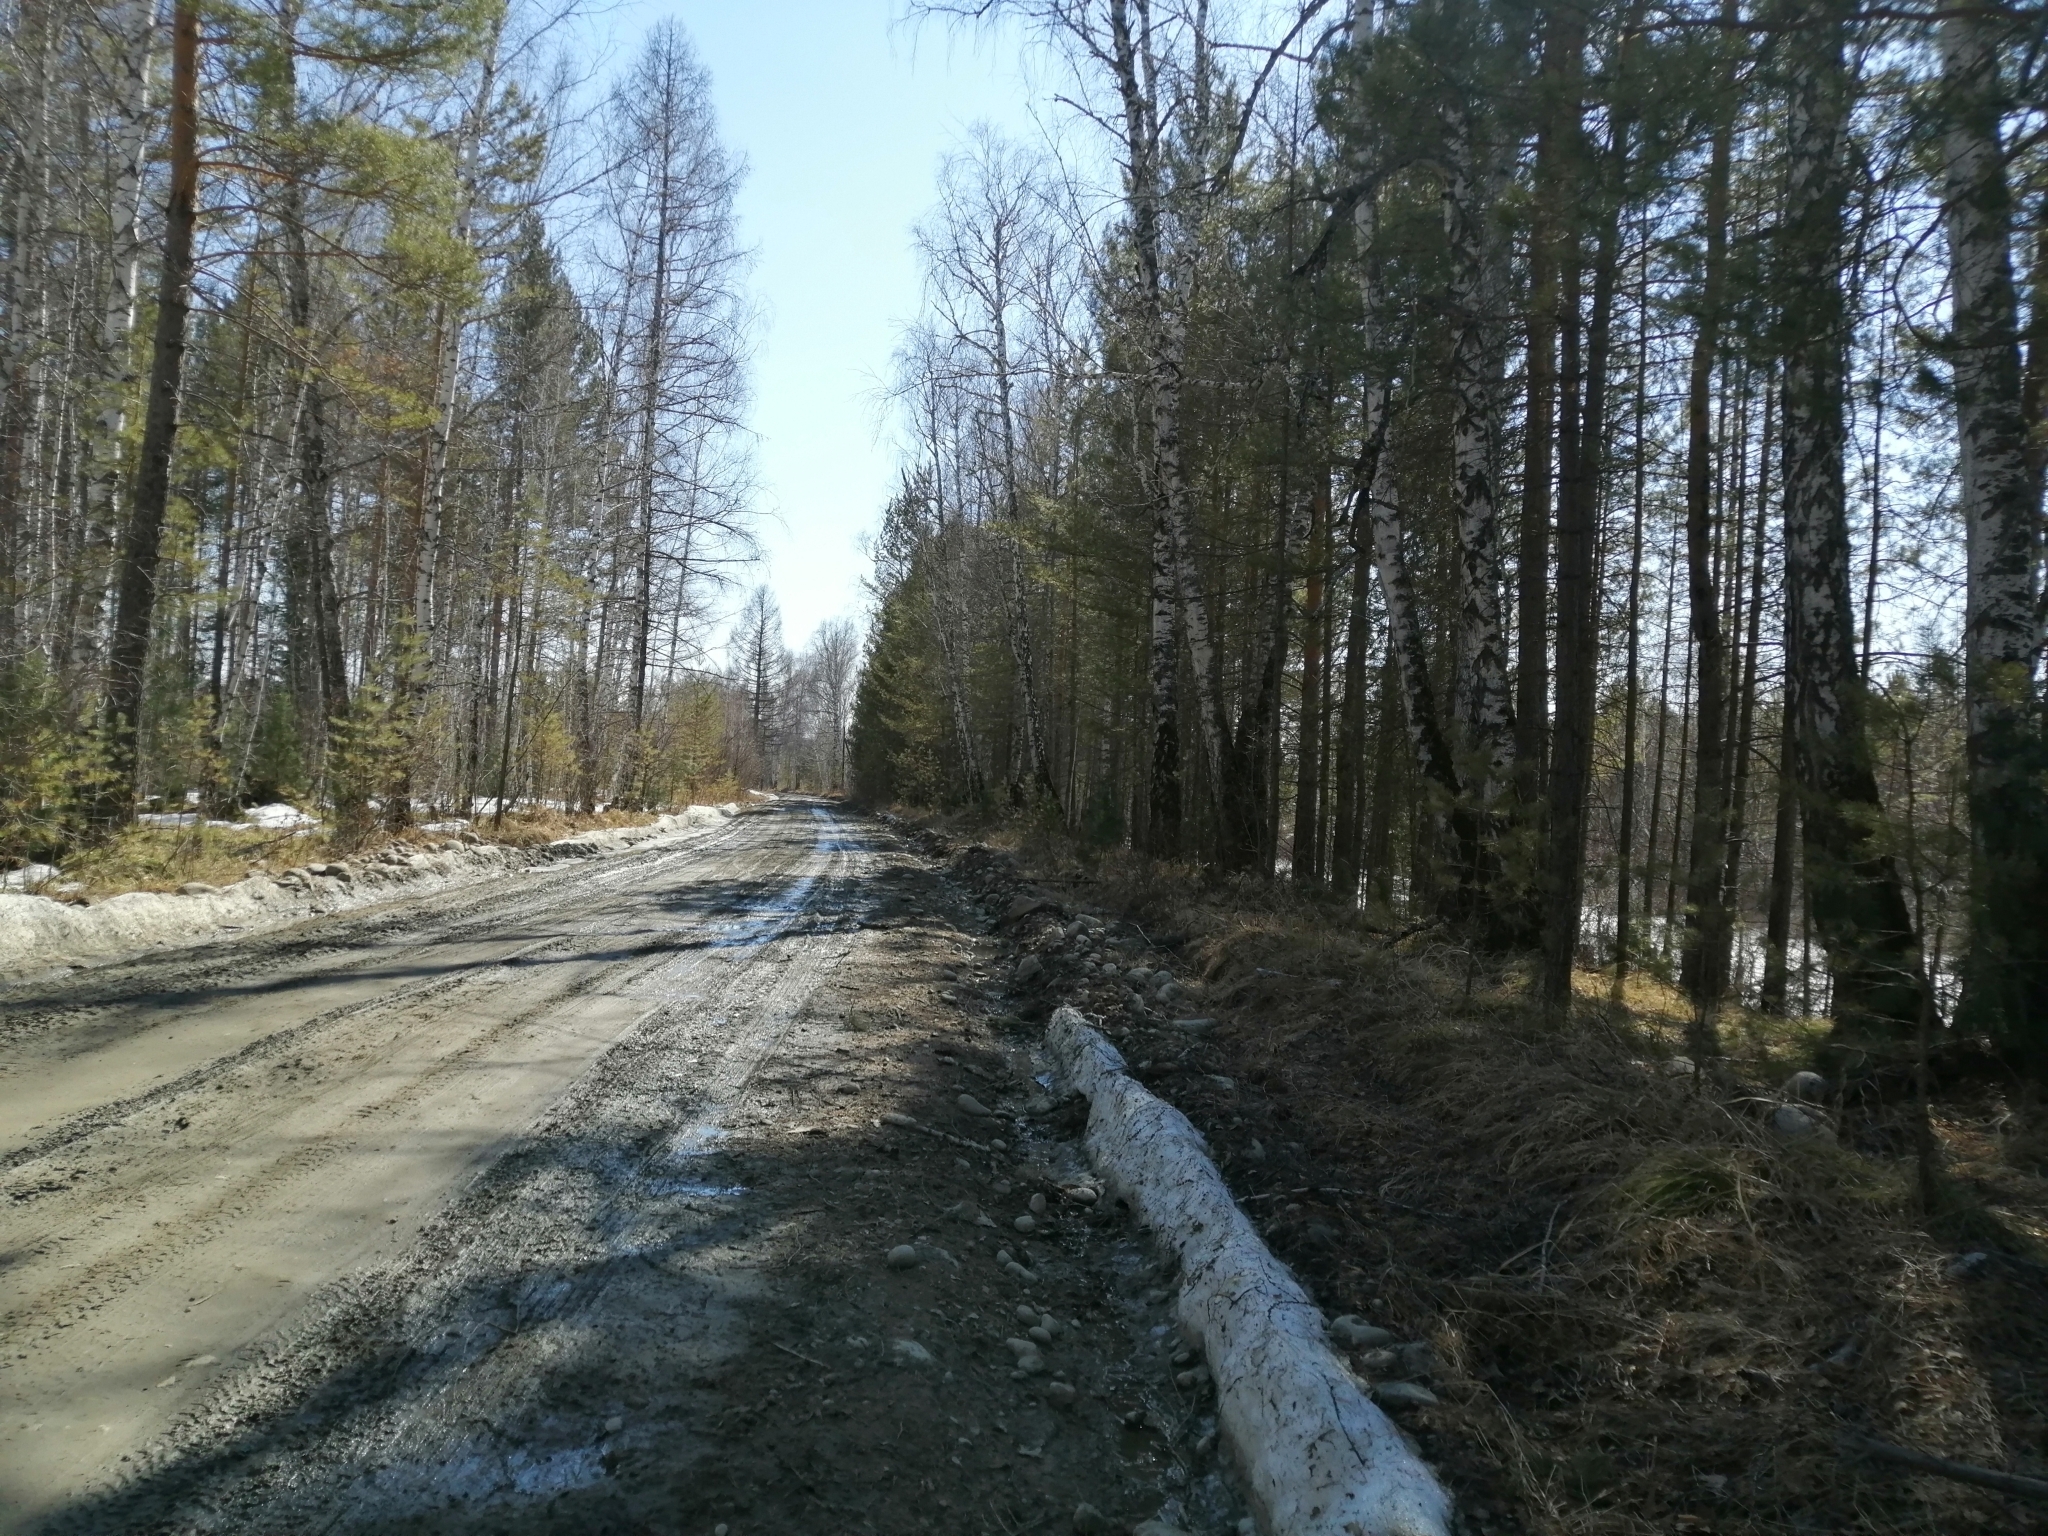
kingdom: Plantae
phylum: Tracheophyta
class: Pinopsida
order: Pinales
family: Pinaceae
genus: Pinus
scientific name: Pinus sylvestris
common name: Scots pine
